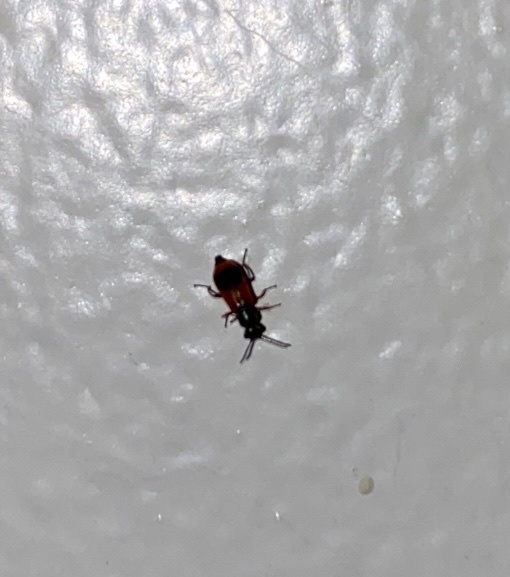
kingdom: Animalia
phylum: Arthropoda
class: Insecta
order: Coleoptera
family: Melyridae
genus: Anthocomus
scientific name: Anthocomus equestris
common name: Black-banded soft-winged flower beetle
